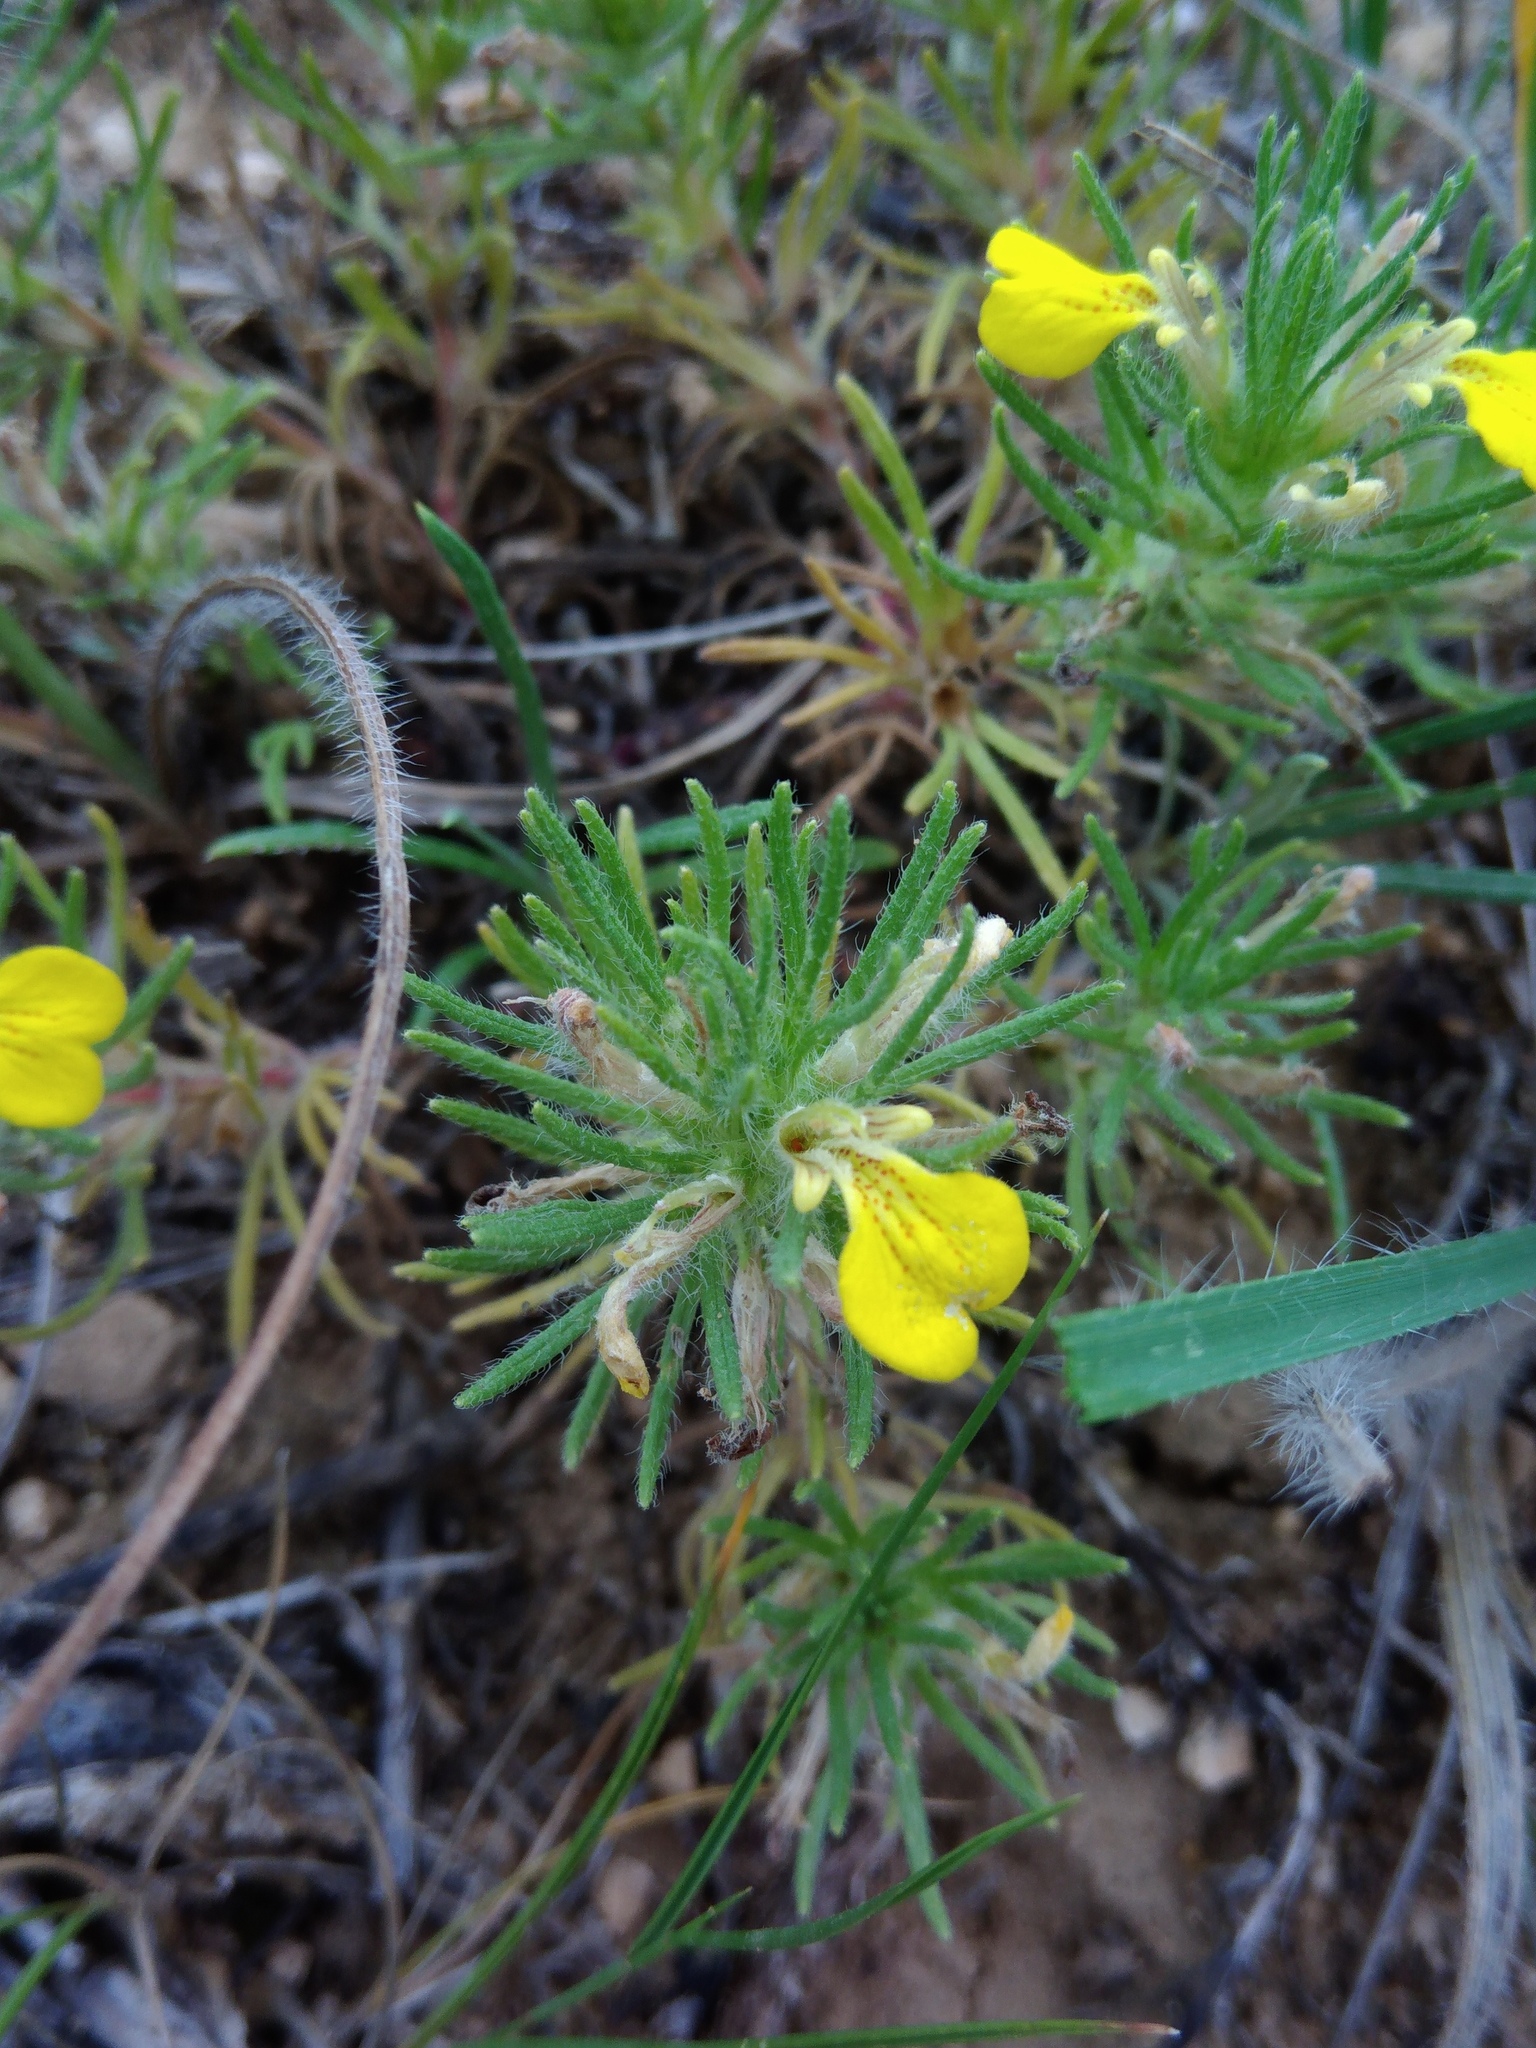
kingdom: Plantae
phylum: Tracheophyta
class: Magnoliopsida
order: Lamiales
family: Lamiaceae
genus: Ajuga
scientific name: Ajuga chamaepitys
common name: Ground-pine
